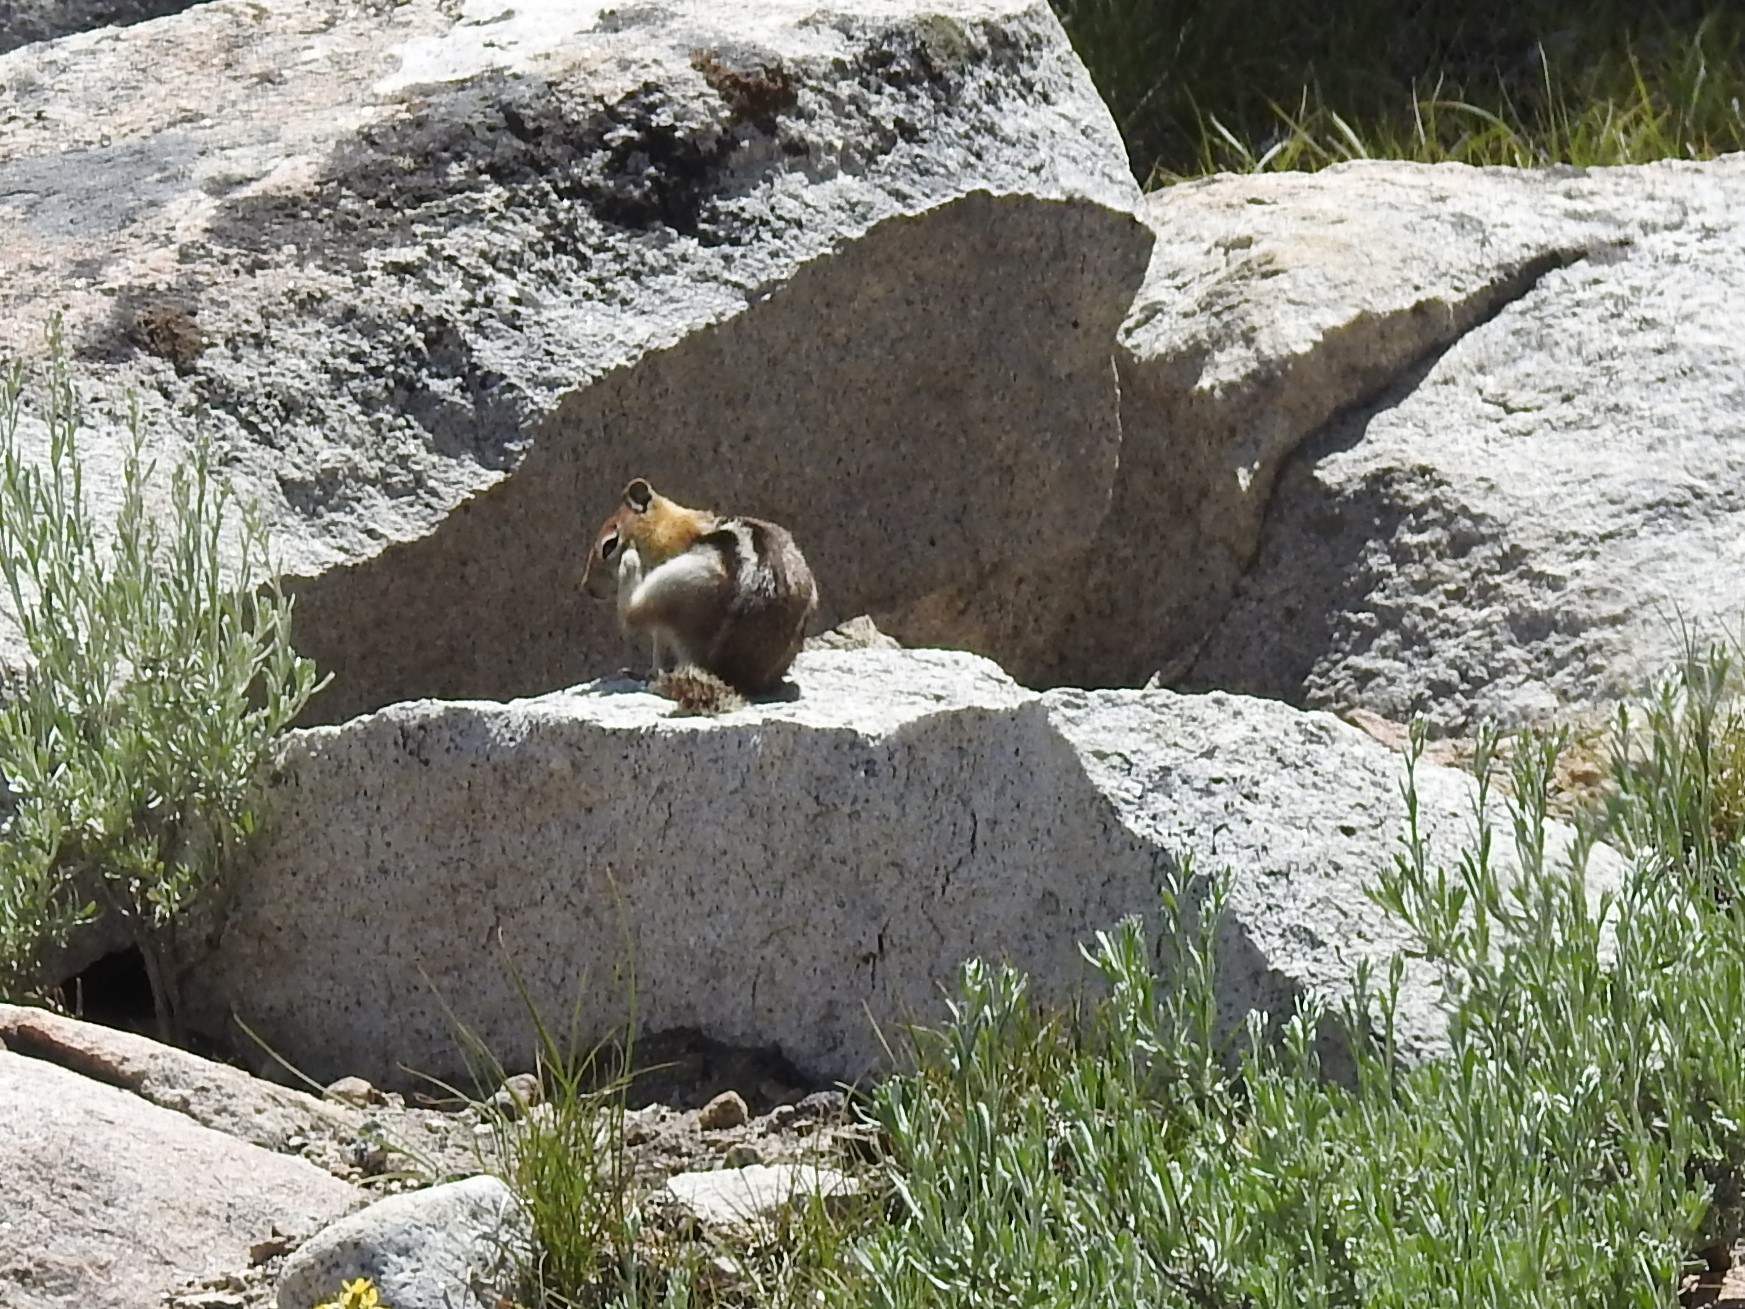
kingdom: Animalia
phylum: Chordata
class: Mammalia
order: Rodentia
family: Sciuridae
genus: Callospermophilus
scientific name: Callospermophilus lateralis
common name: Golden-mantled ground squirrel
